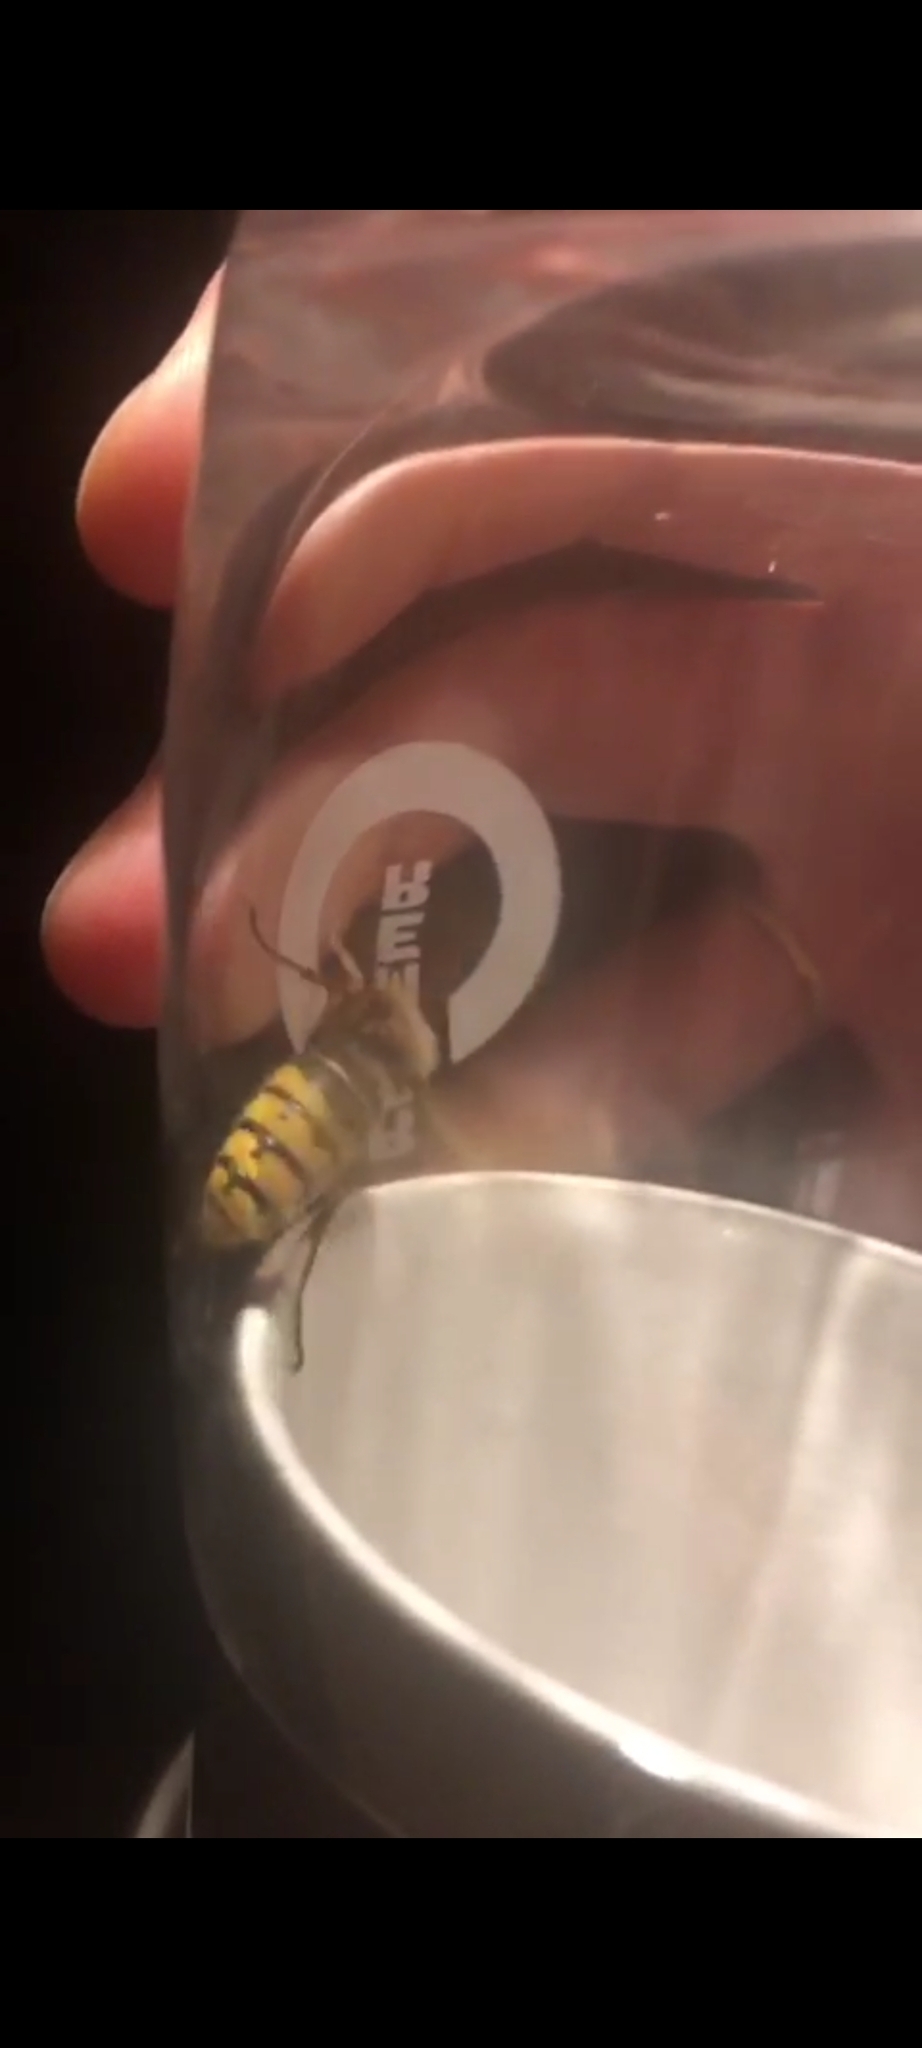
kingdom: Animalia
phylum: Arthropoda
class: Insecta
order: Hymenoptera
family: Vespidae
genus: Vespa
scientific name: Vespa crabro
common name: Hornet
